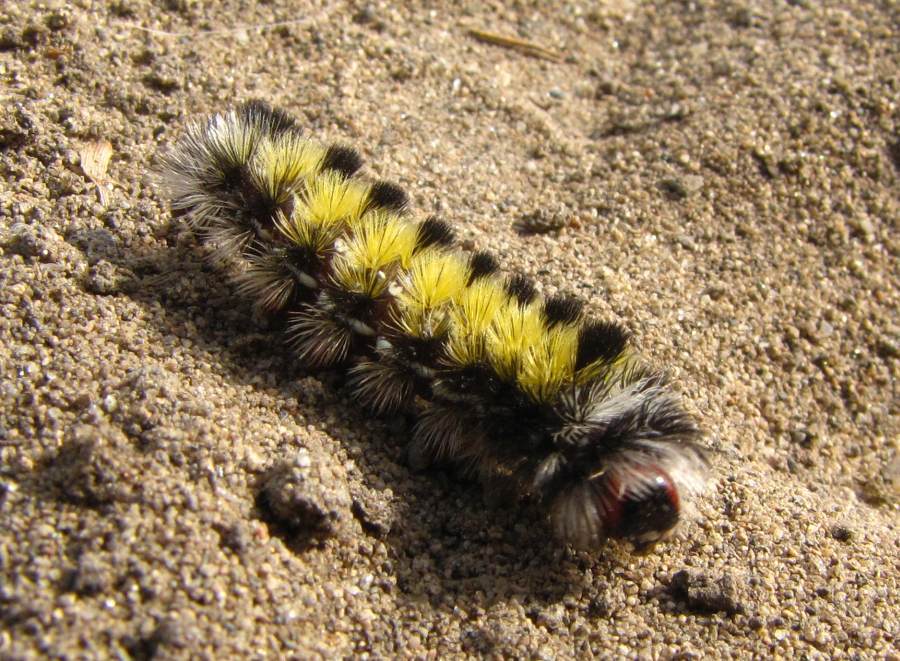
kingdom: Animalia
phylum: Arthropoda
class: Insecta
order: Lepidoptera
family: Erebidae
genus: Ctenucha
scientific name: Ctenucha virginica
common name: Virginia ctenucha moth
